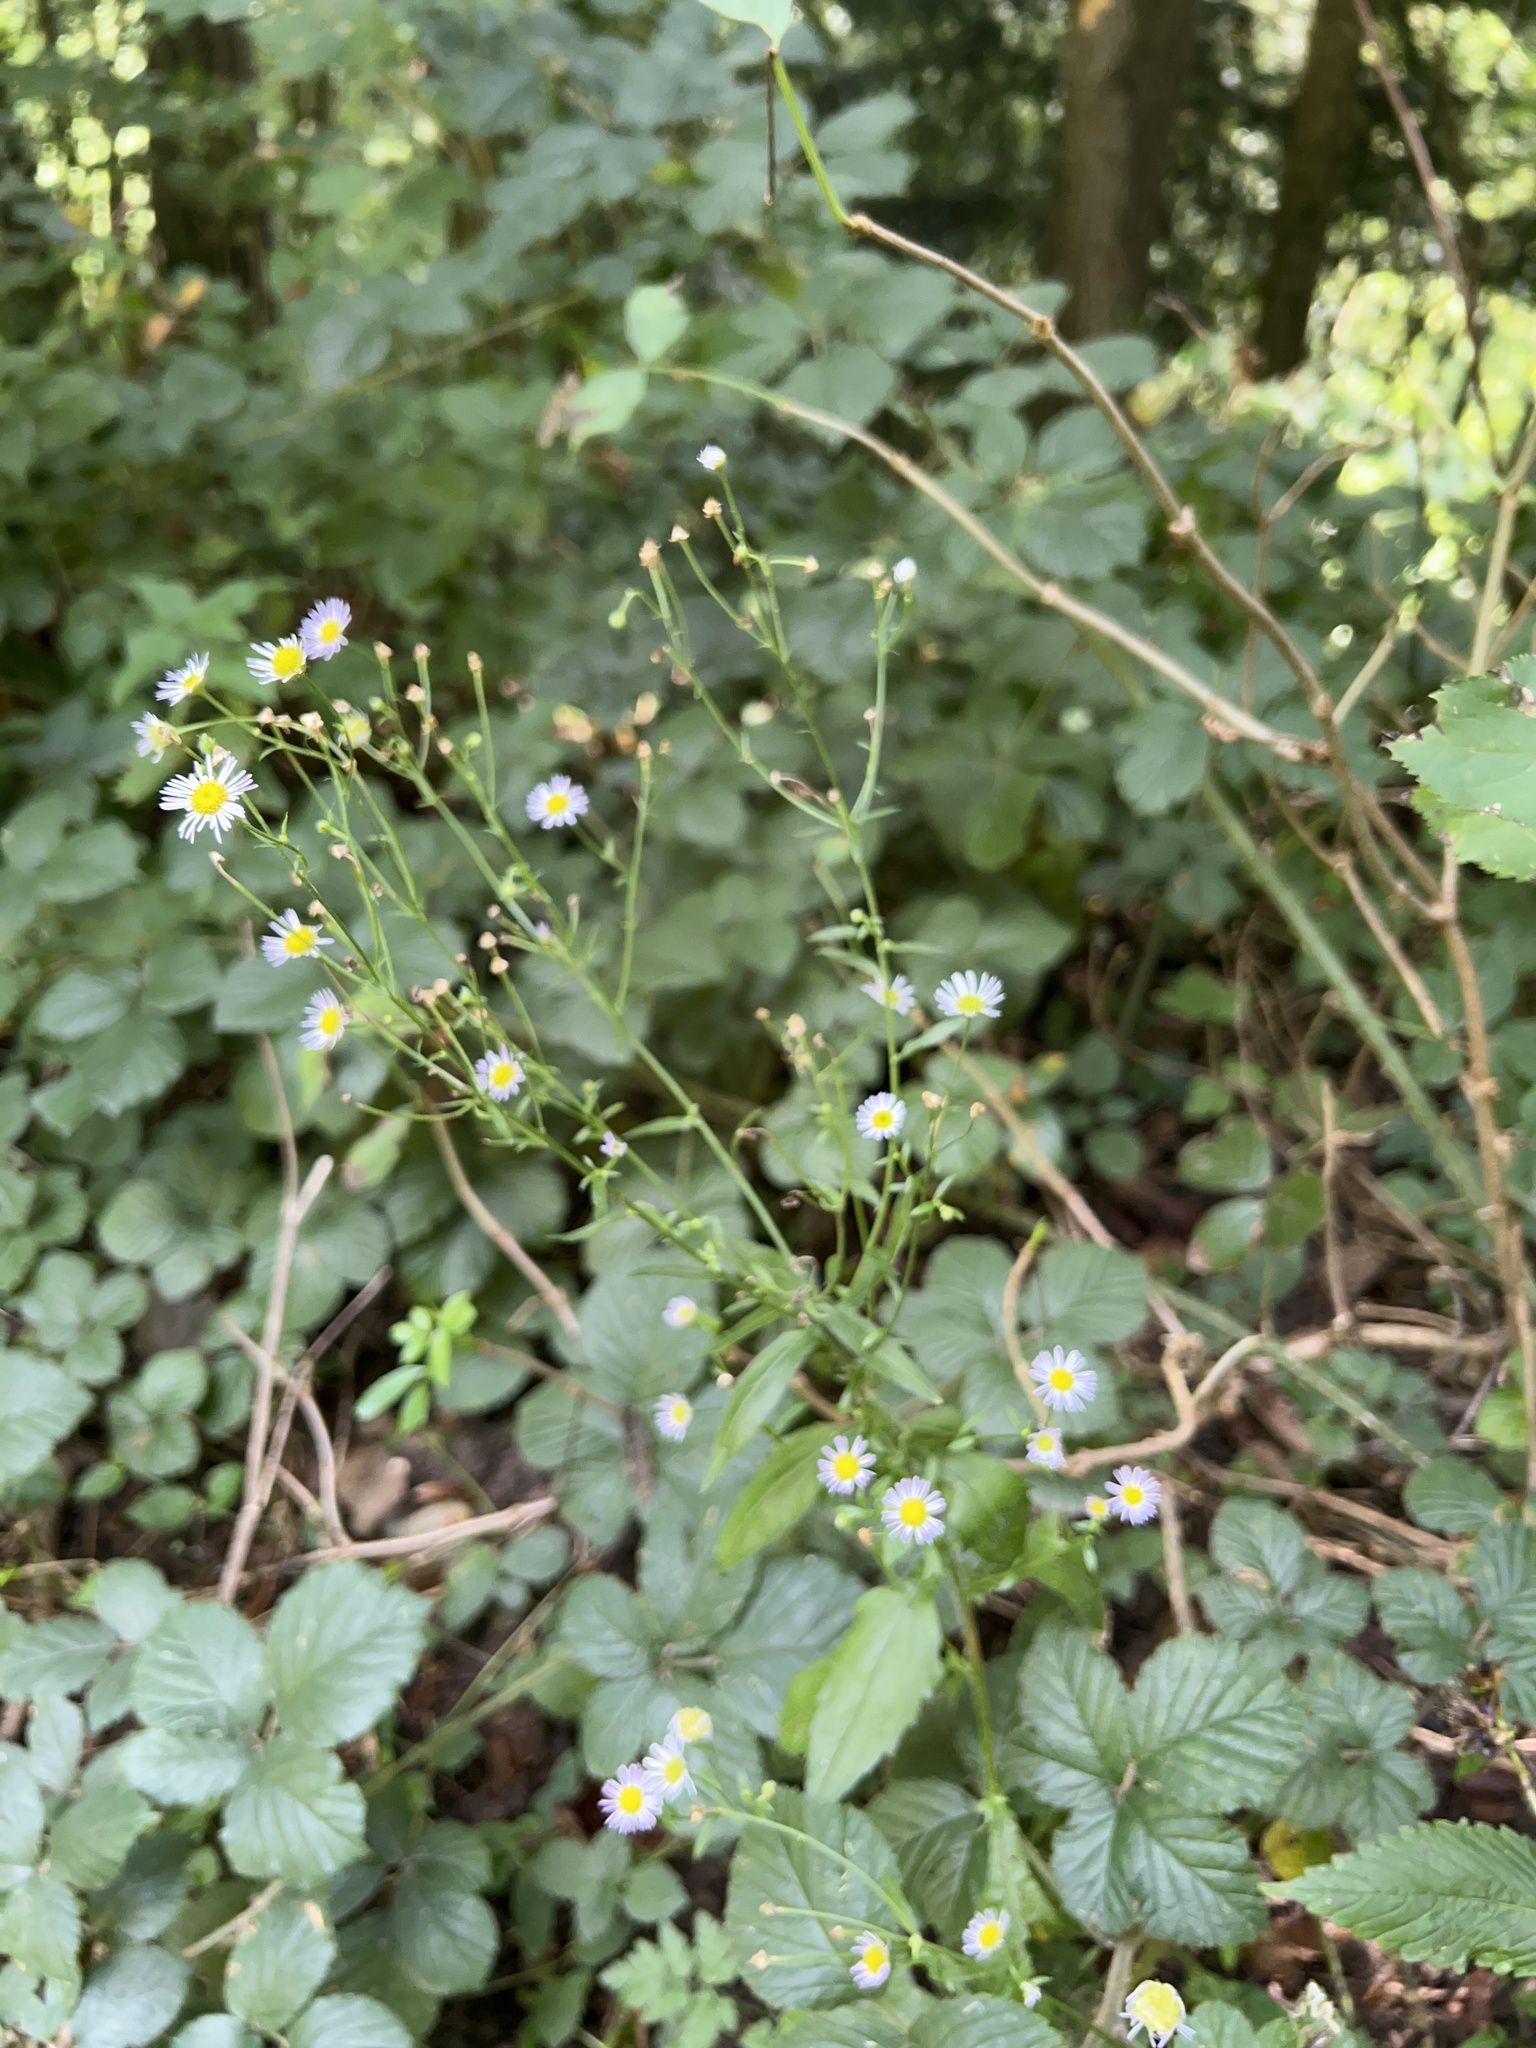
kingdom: Plantae
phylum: Tracheophyta
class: Magnoliopsida
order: Asterales
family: Asteraceae
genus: Erigeron
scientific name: Erigeron annuus
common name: Tall fleabane
